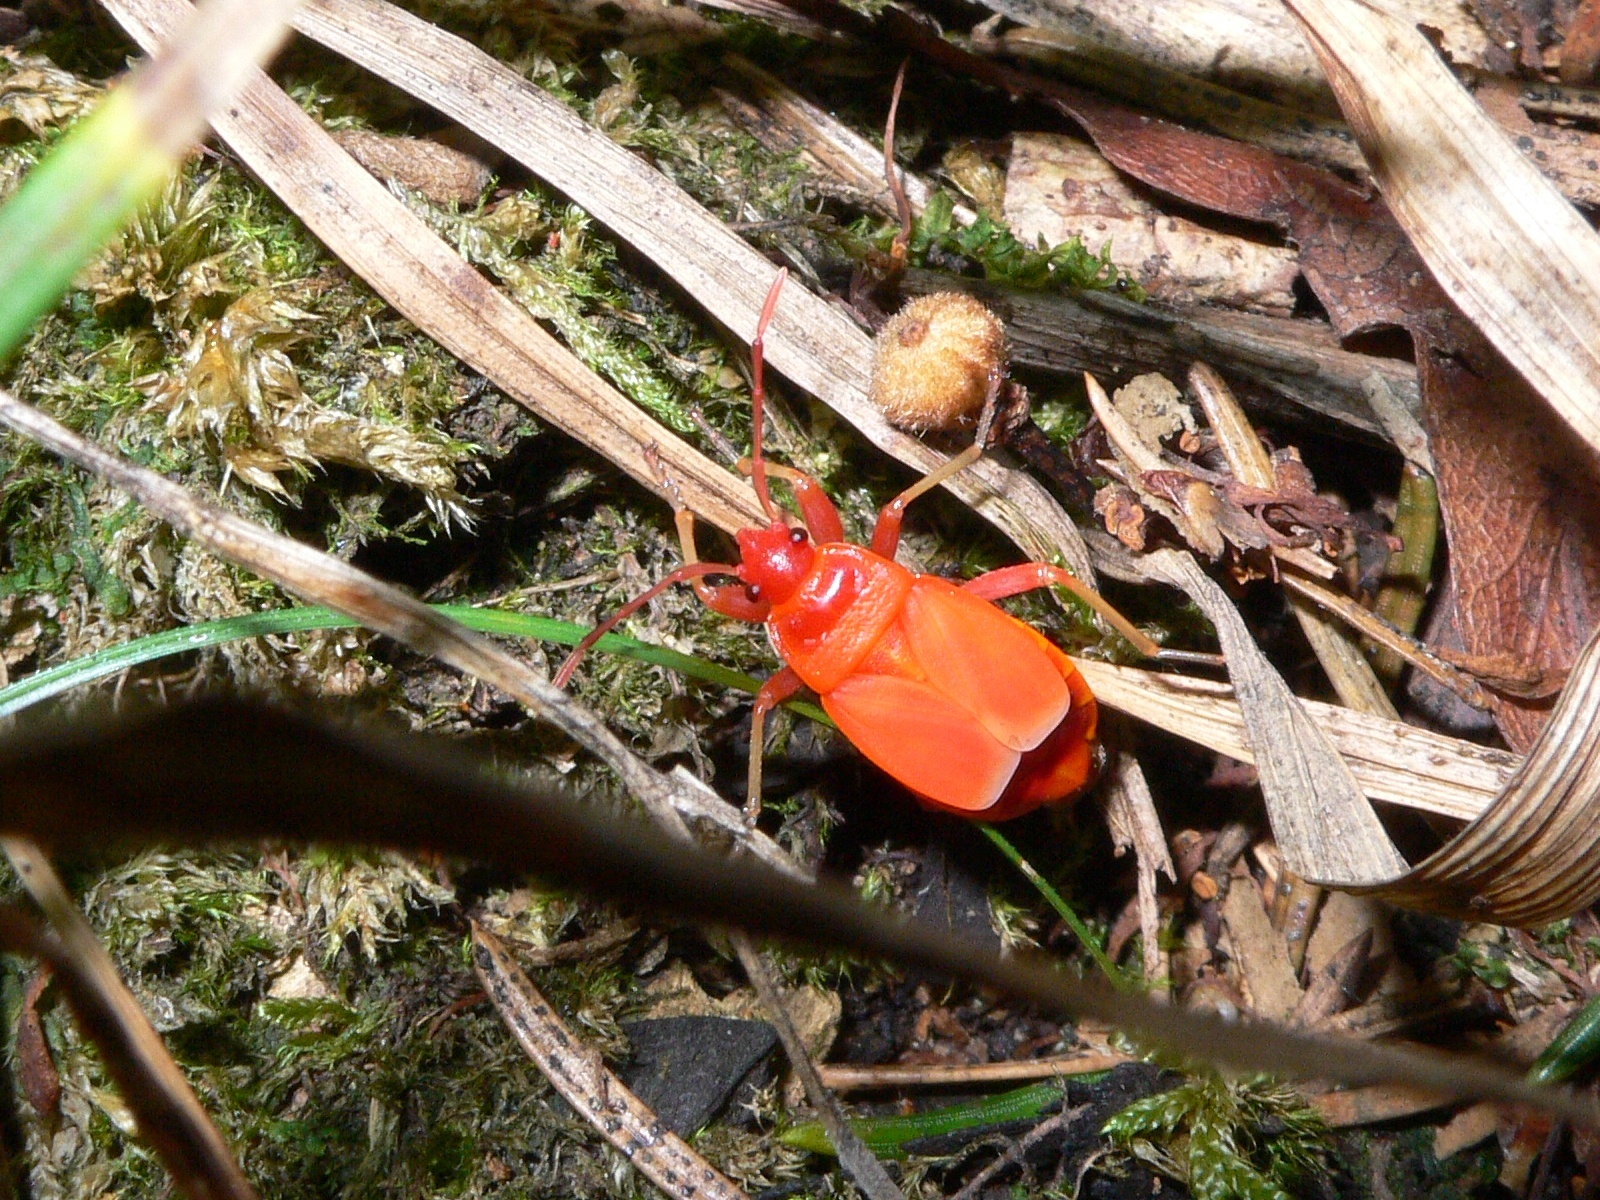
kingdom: Animalia
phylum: Arthropoda
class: Insecta
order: Hemiptera
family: Pyrrhocoridae
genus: Pyrrhocoris
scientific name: Pyrrhocoris apterus
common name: Firebug
